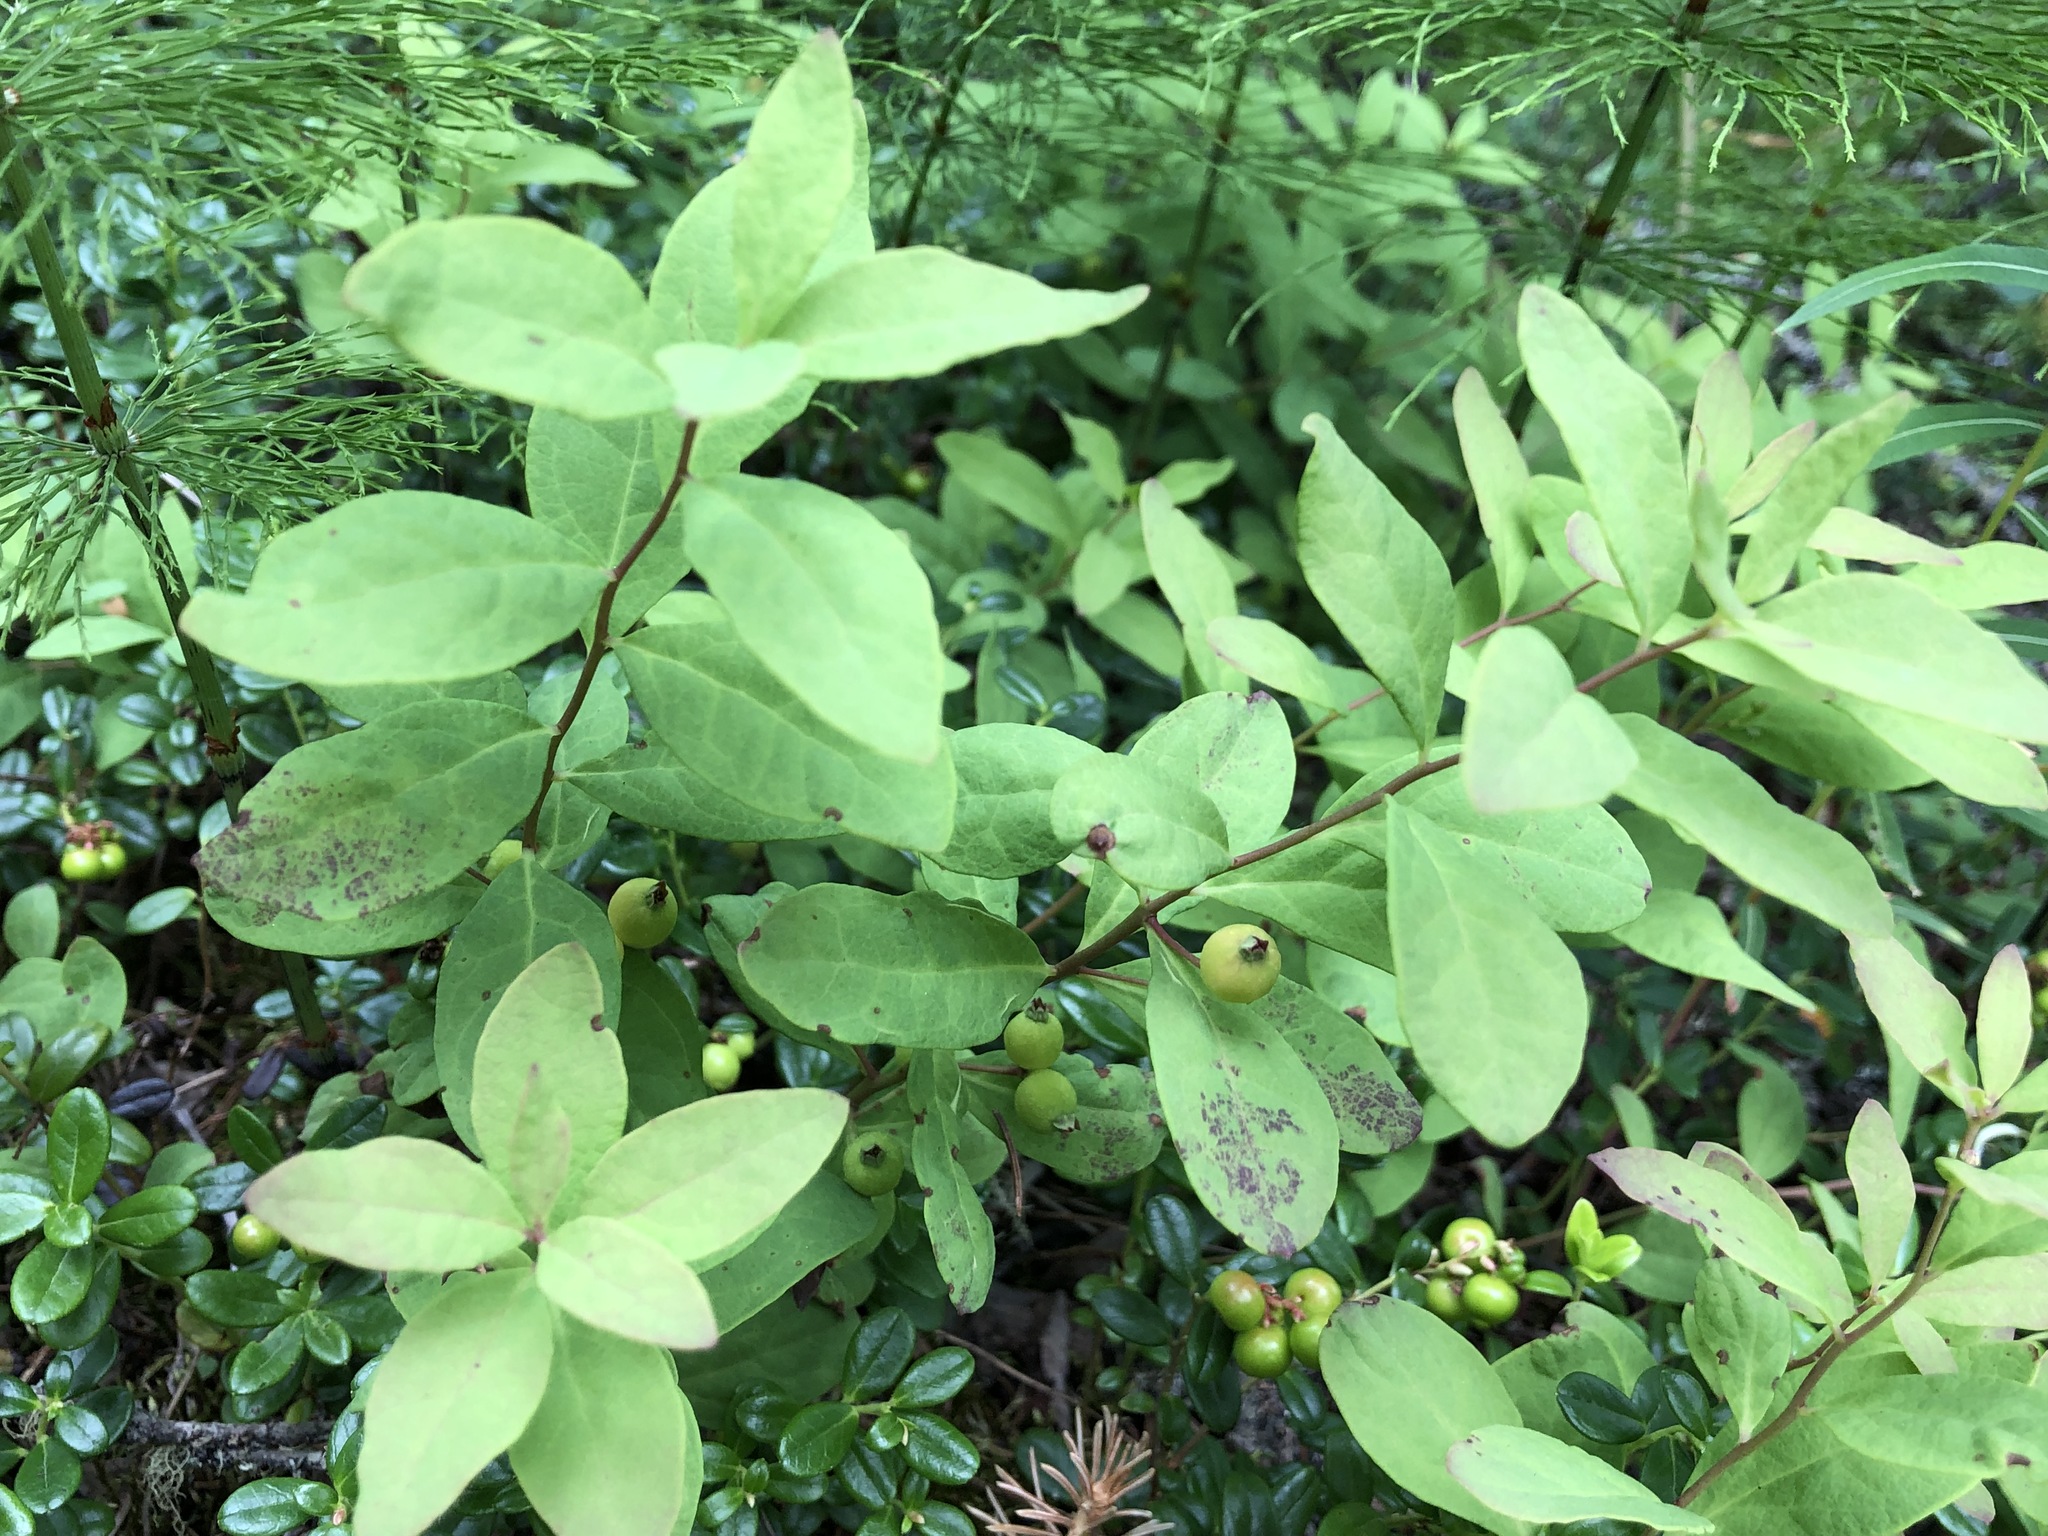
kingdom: Plantae
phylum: Tracheophyta
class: Magnoliopsida
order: Santalales
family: Comandraceae
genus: Geocaulon
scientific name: Geocaulon lividum
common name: Earthberry
